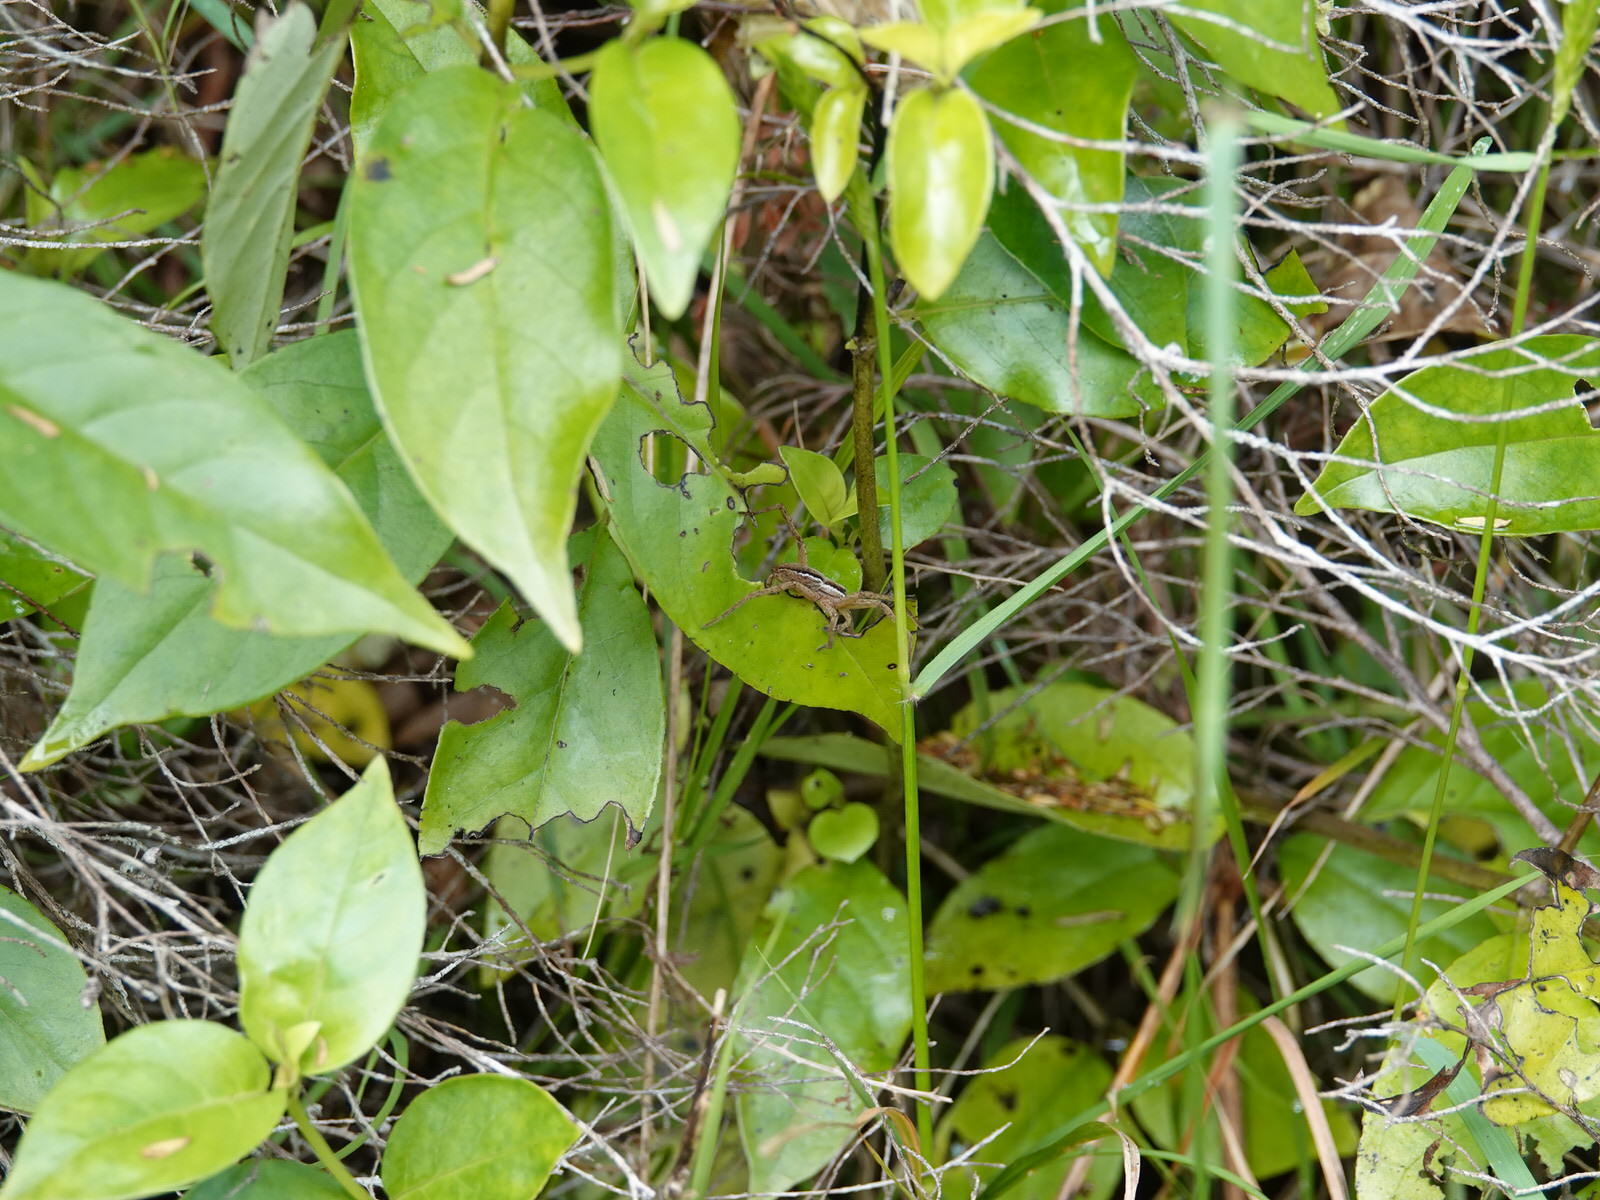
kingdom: Animalia
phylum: Arthropoda
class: Arachnida
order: Araneae
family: Pisauridae
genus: Dolomedes
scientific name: Dolomedes minor
